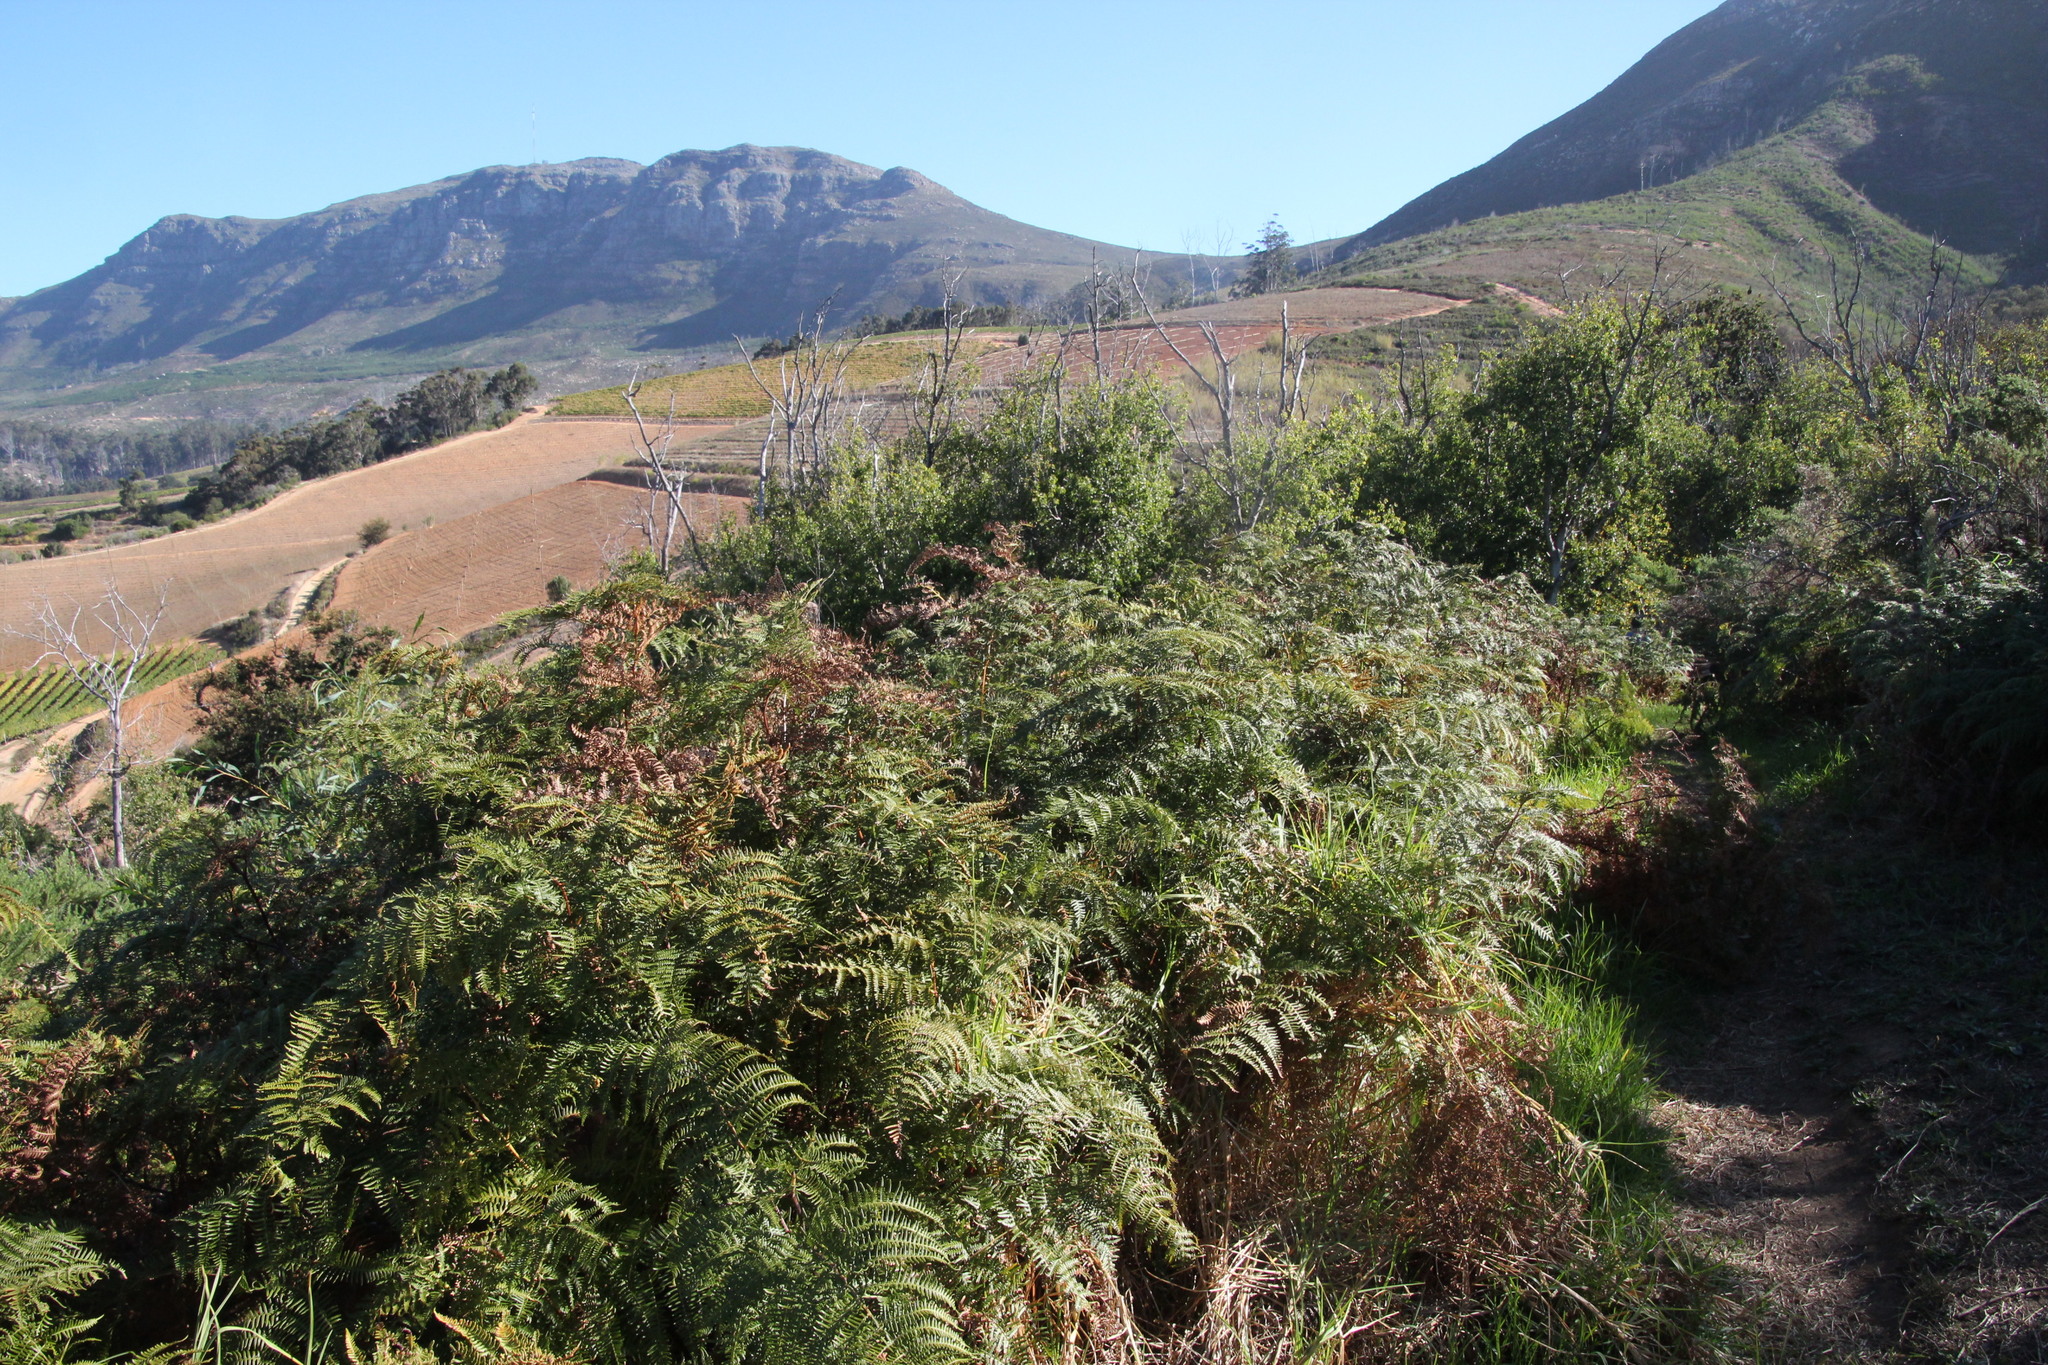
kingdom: Plantae
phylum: Tracheophyta
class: Polypodiopsida
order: Polypodiales
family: Dennstaedtiaceae
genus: Pteridium
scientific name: Pteridium aquilinum
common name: Bracken
